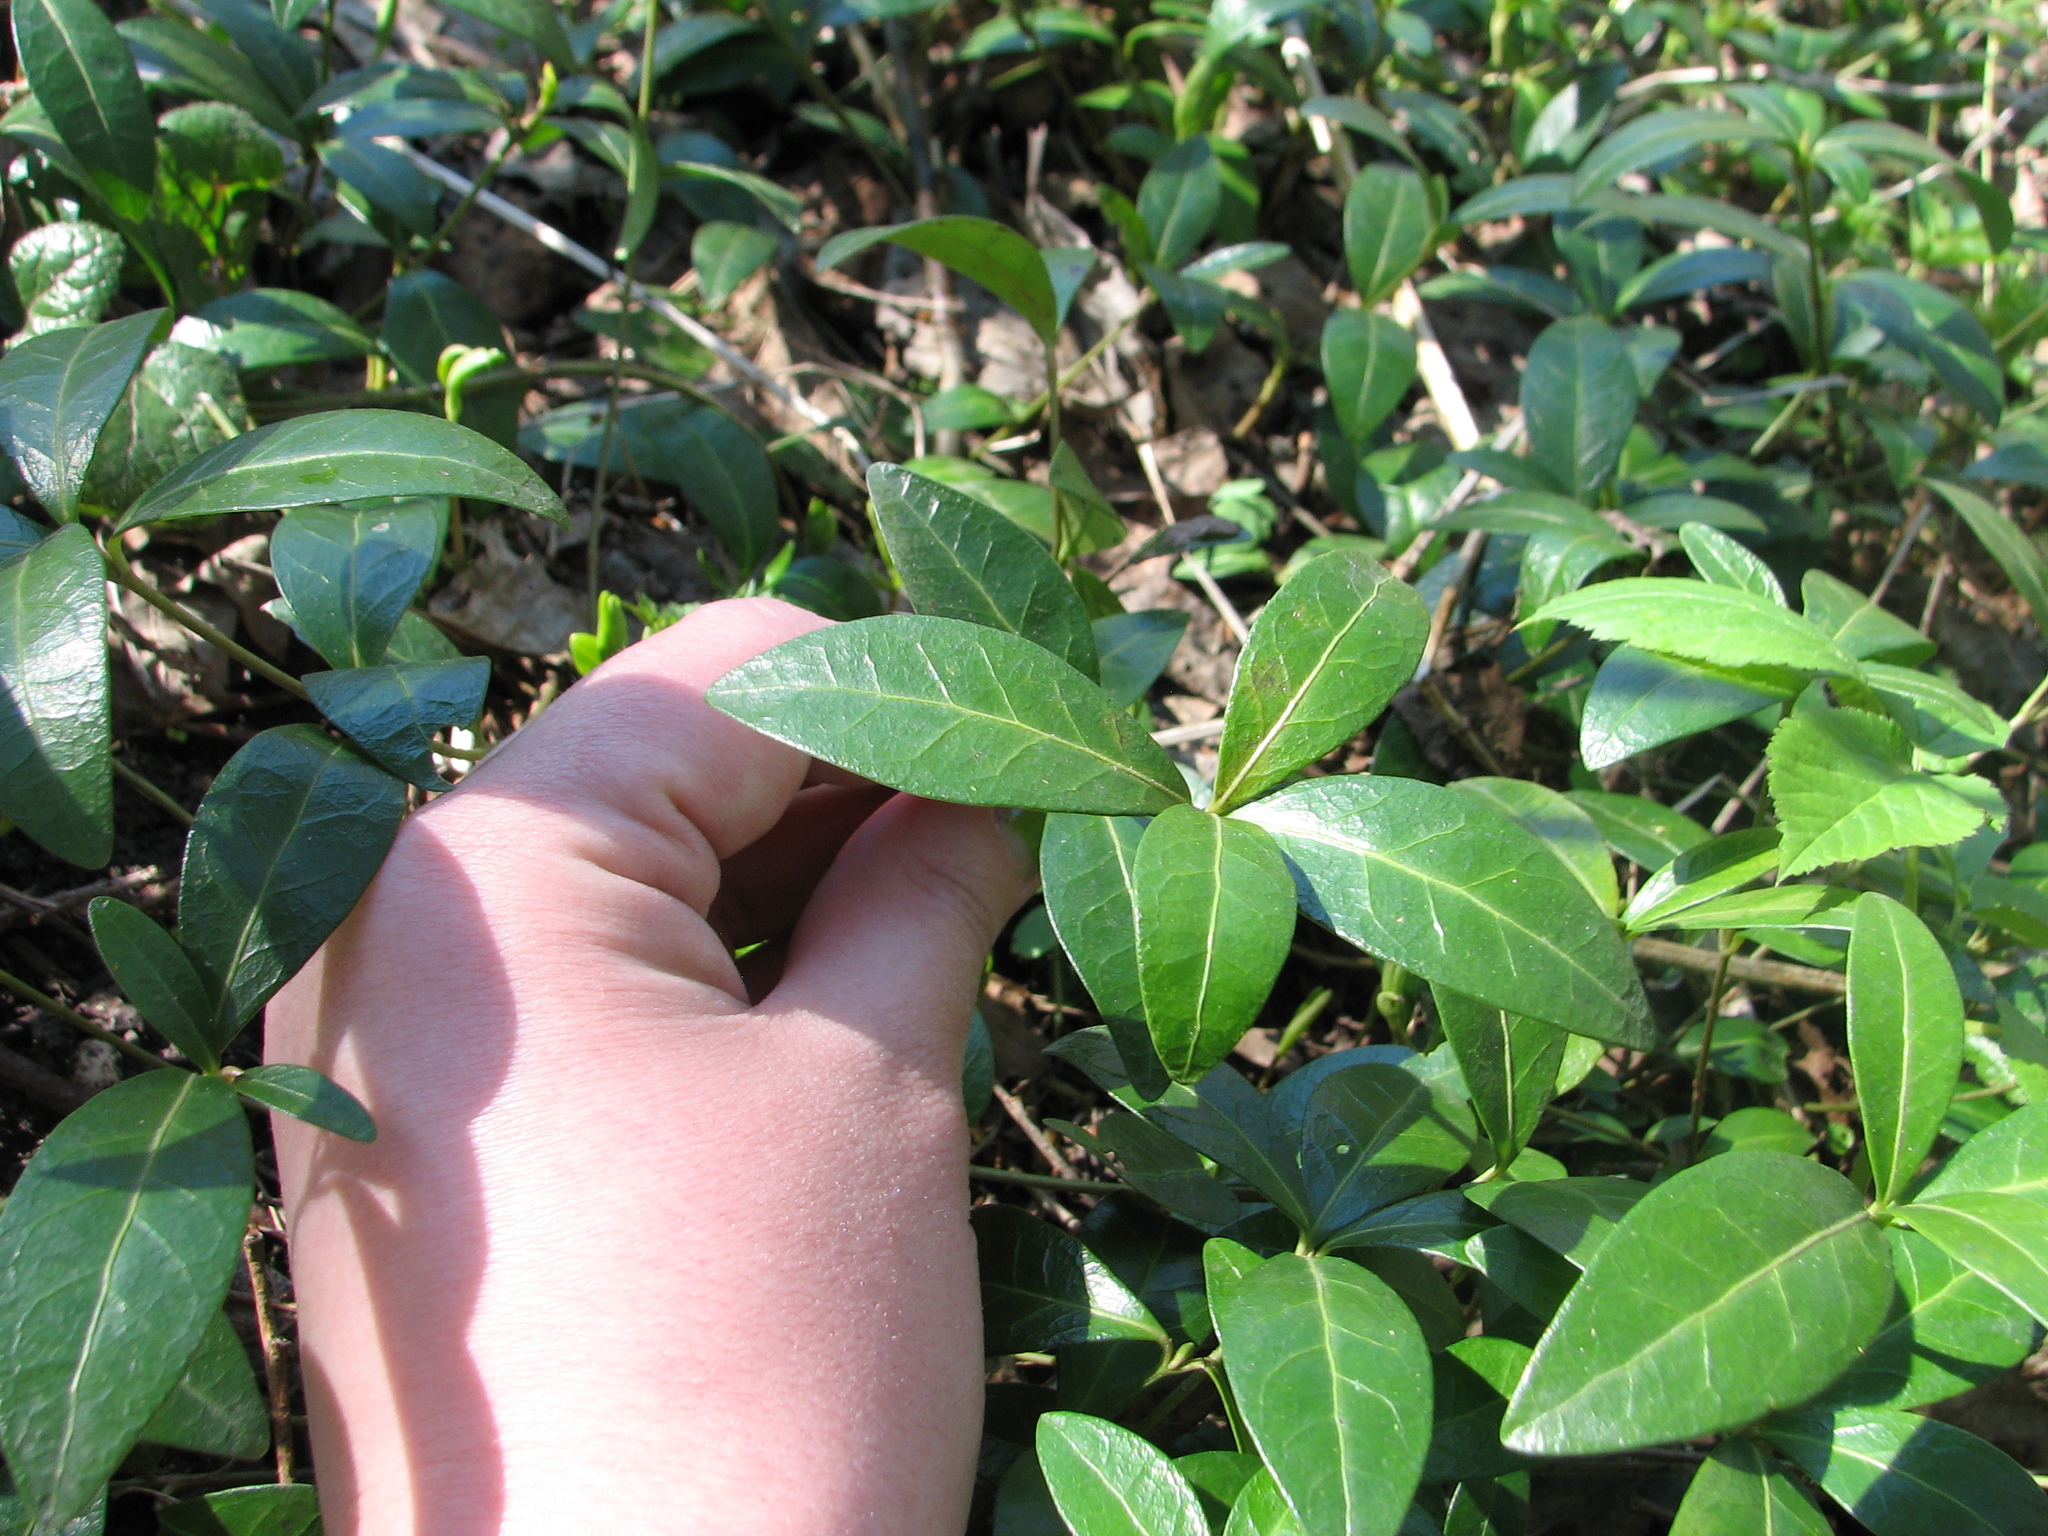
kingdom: Plantae
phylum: Tracheophyta
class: Magnoliopsida
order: Gentianales
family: Apocynaceae
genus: Vinca
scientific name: Vinca minor
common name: Lesser periwinkle
